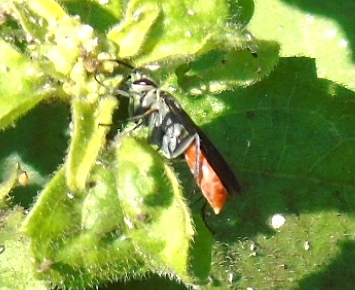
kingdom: Animalia
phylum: Arthropoda
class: Insecta
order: Hymenoptera
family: Pompilidae
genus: Xerochares
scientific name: Xerochares expulsus
